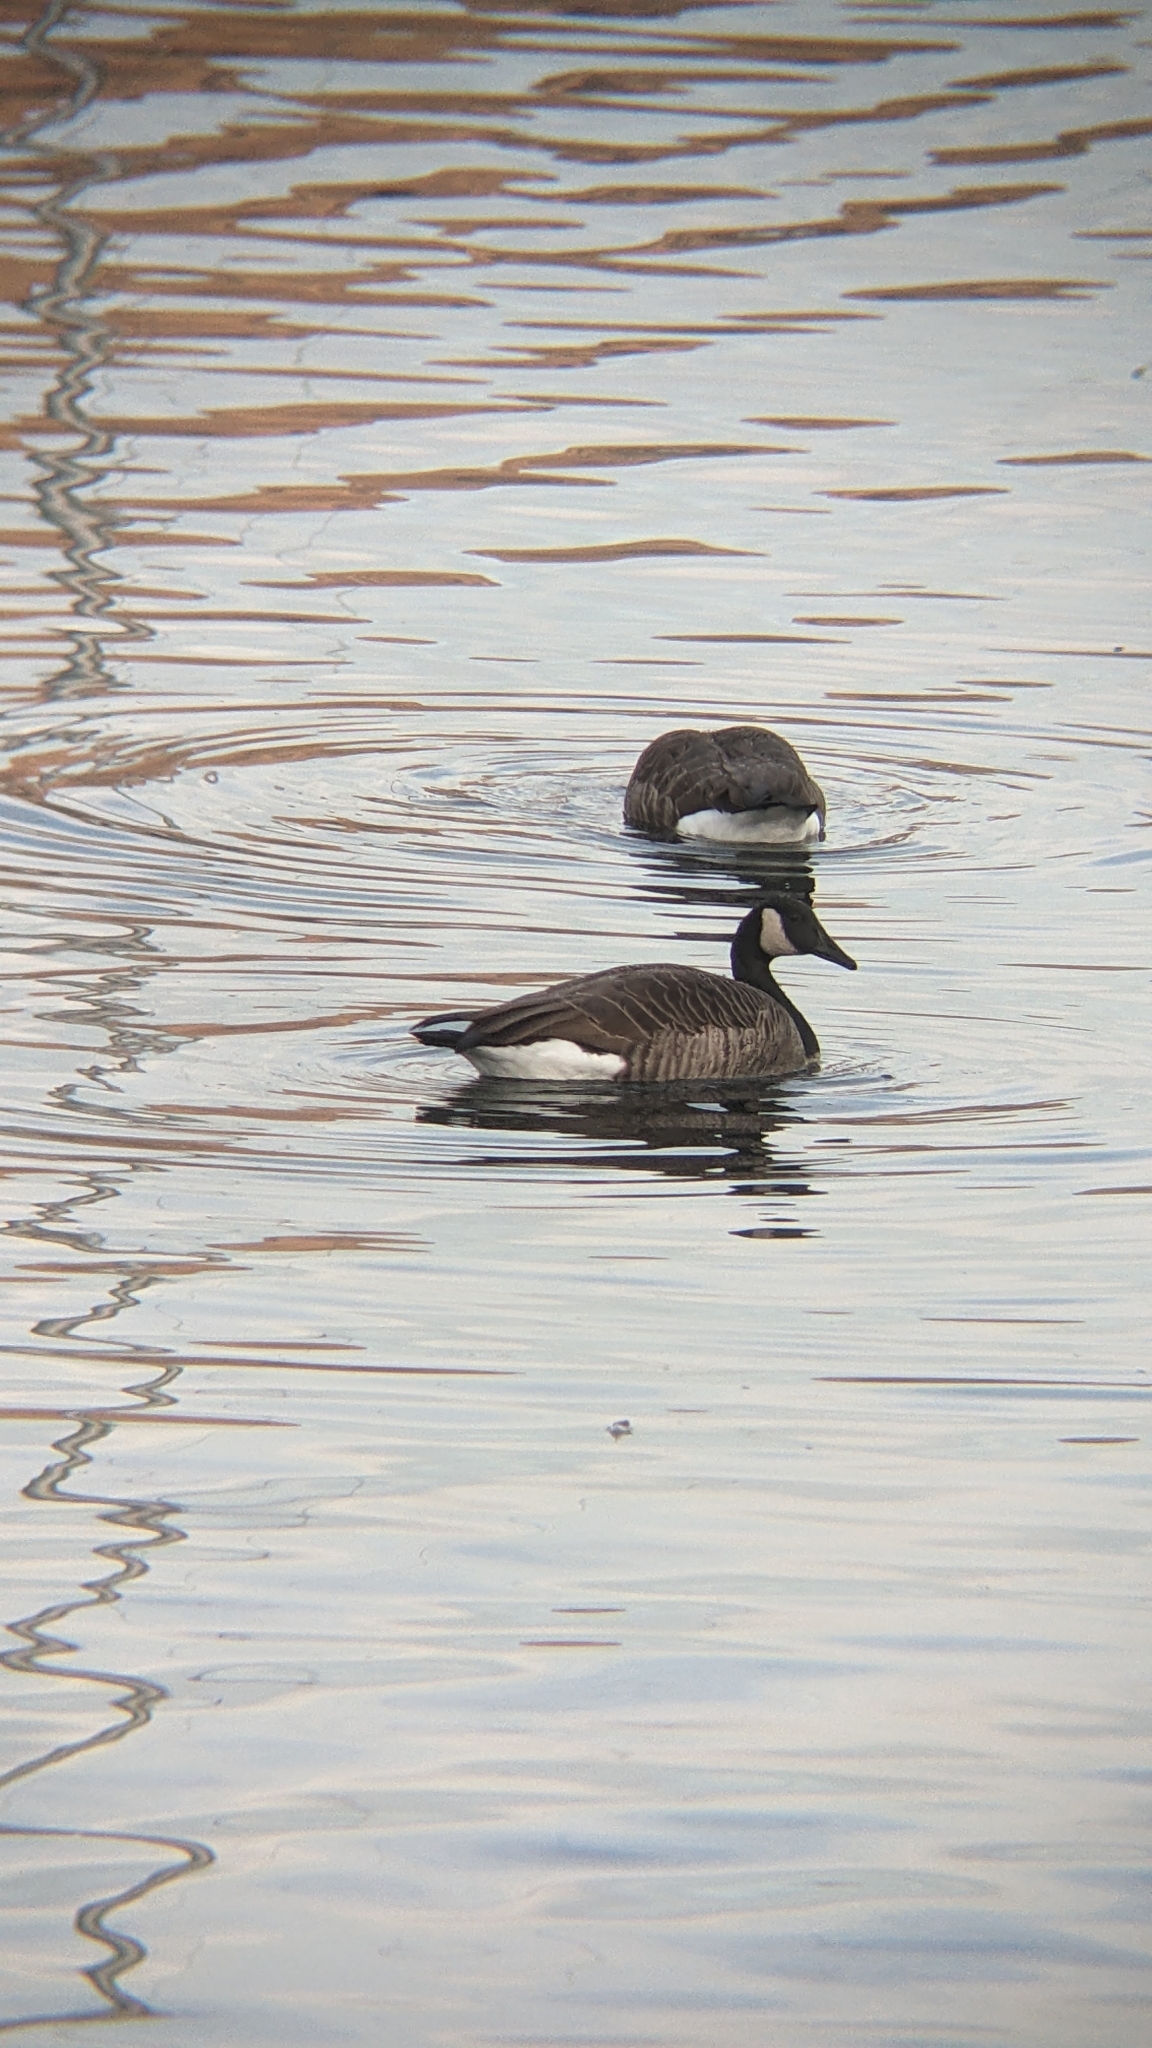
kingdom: Animalia
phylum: Chordata
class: Aves
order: Anseriformes
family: Anatidae
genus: Branta
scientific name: Branta canadensis
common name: Canada goose
